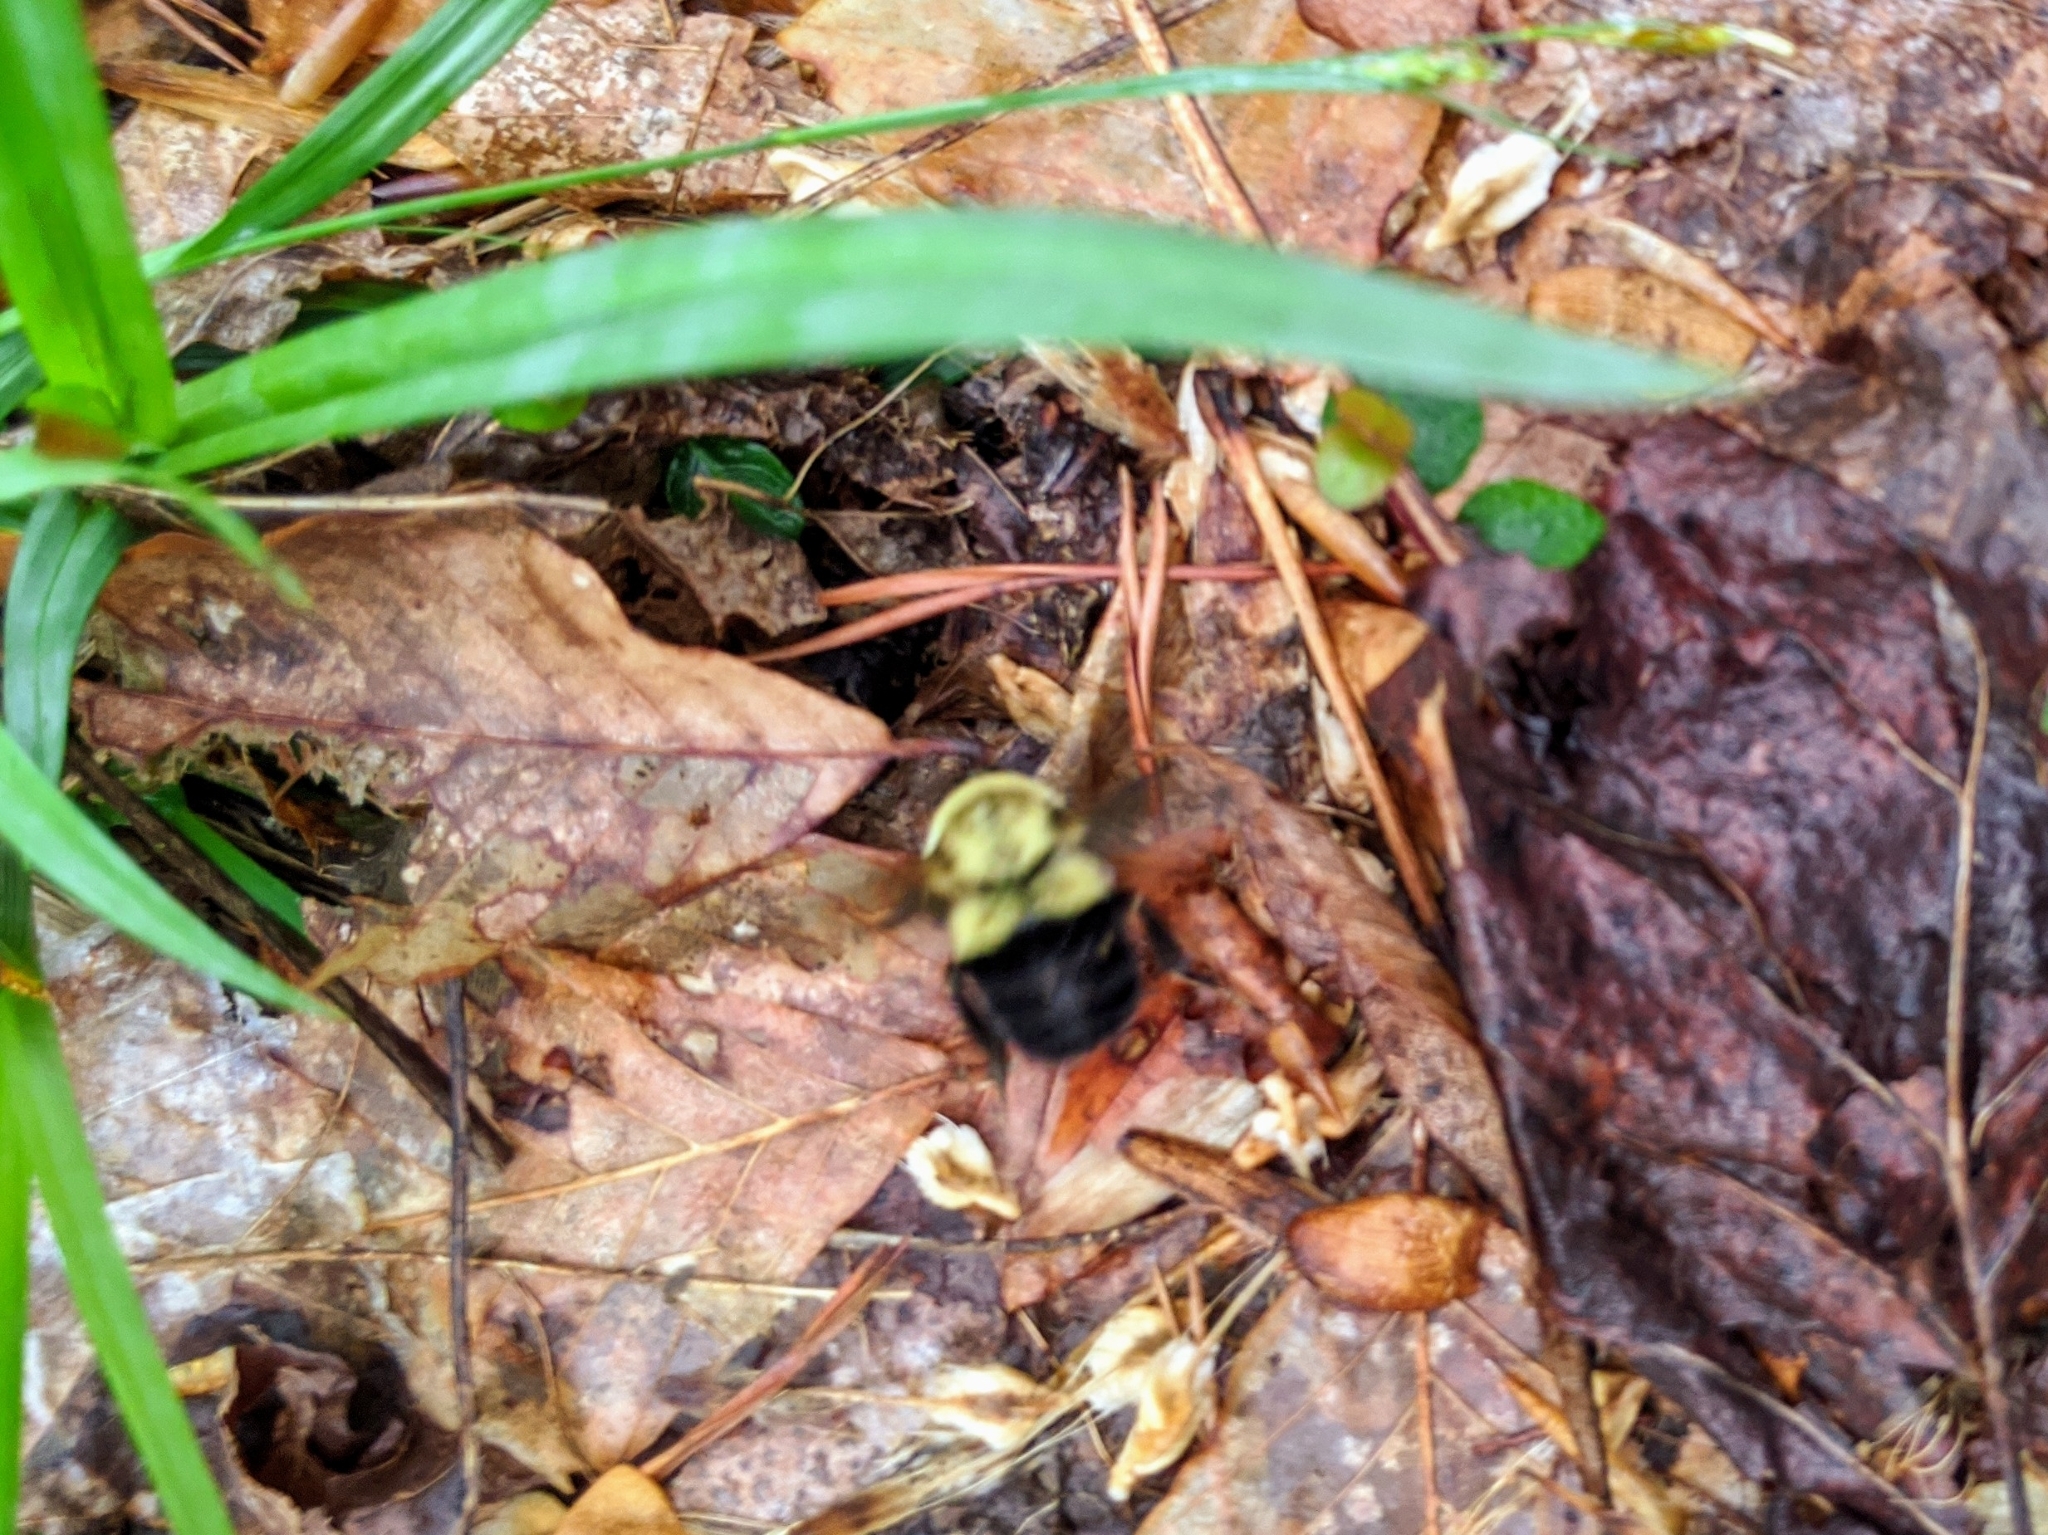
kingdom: Animalia
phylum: Arthropoda
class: Insecta
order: Hymenoptera
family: Apidae
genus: Bombus
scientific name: Bombus impatiens
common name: Common eastern bumble bee
